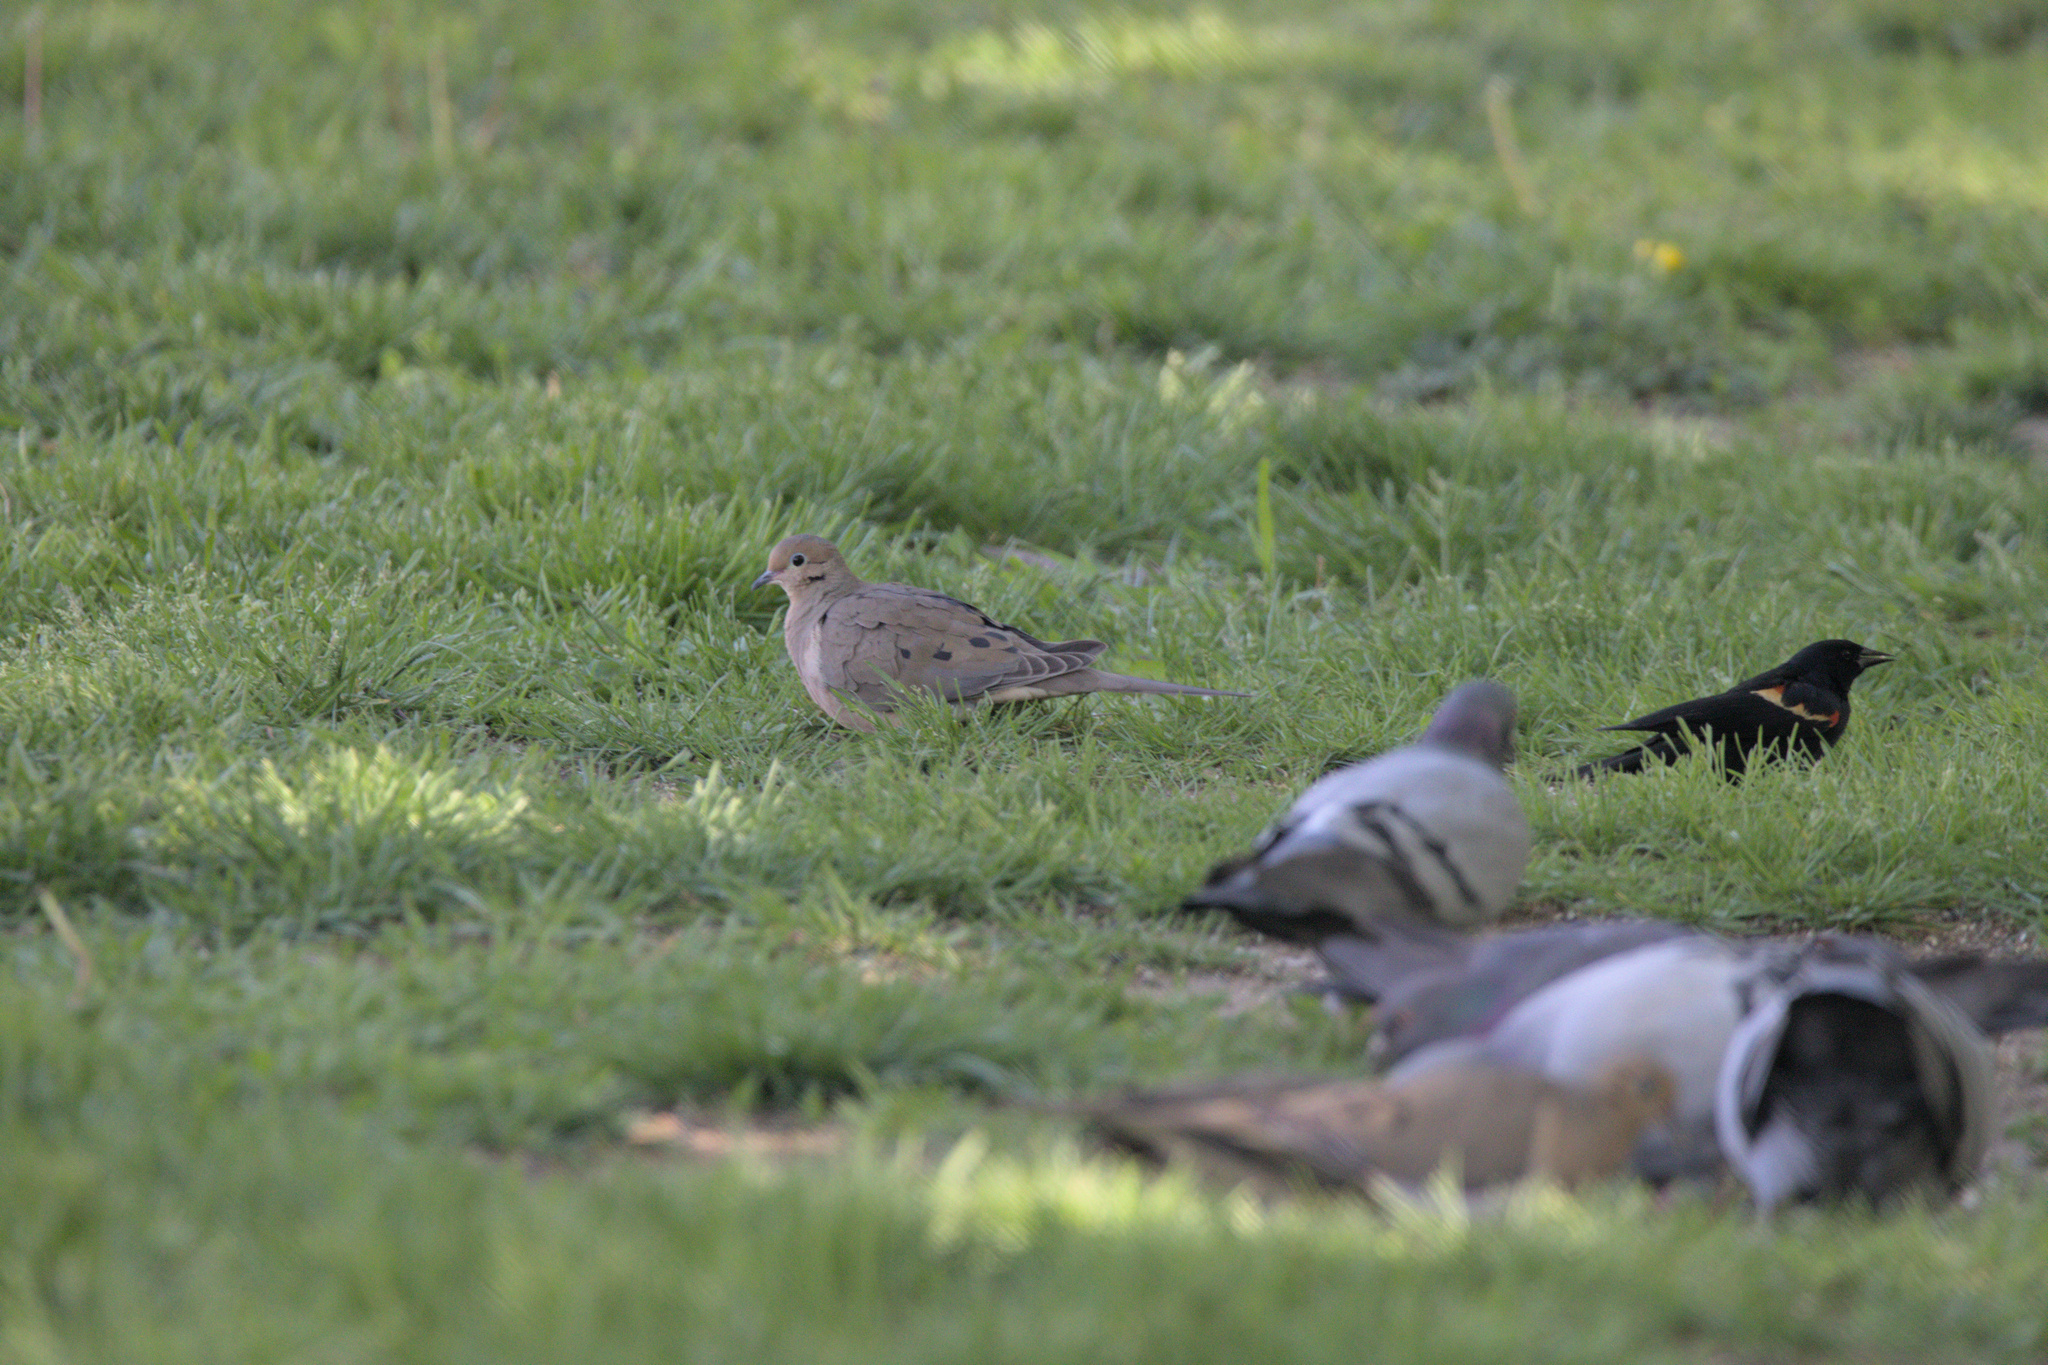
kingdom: Animalia
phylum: Chordata
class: Aves
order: Columbiformes
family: Columbidae
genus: Zenaida
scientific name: Zenaida macroura
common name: Mourning dove
